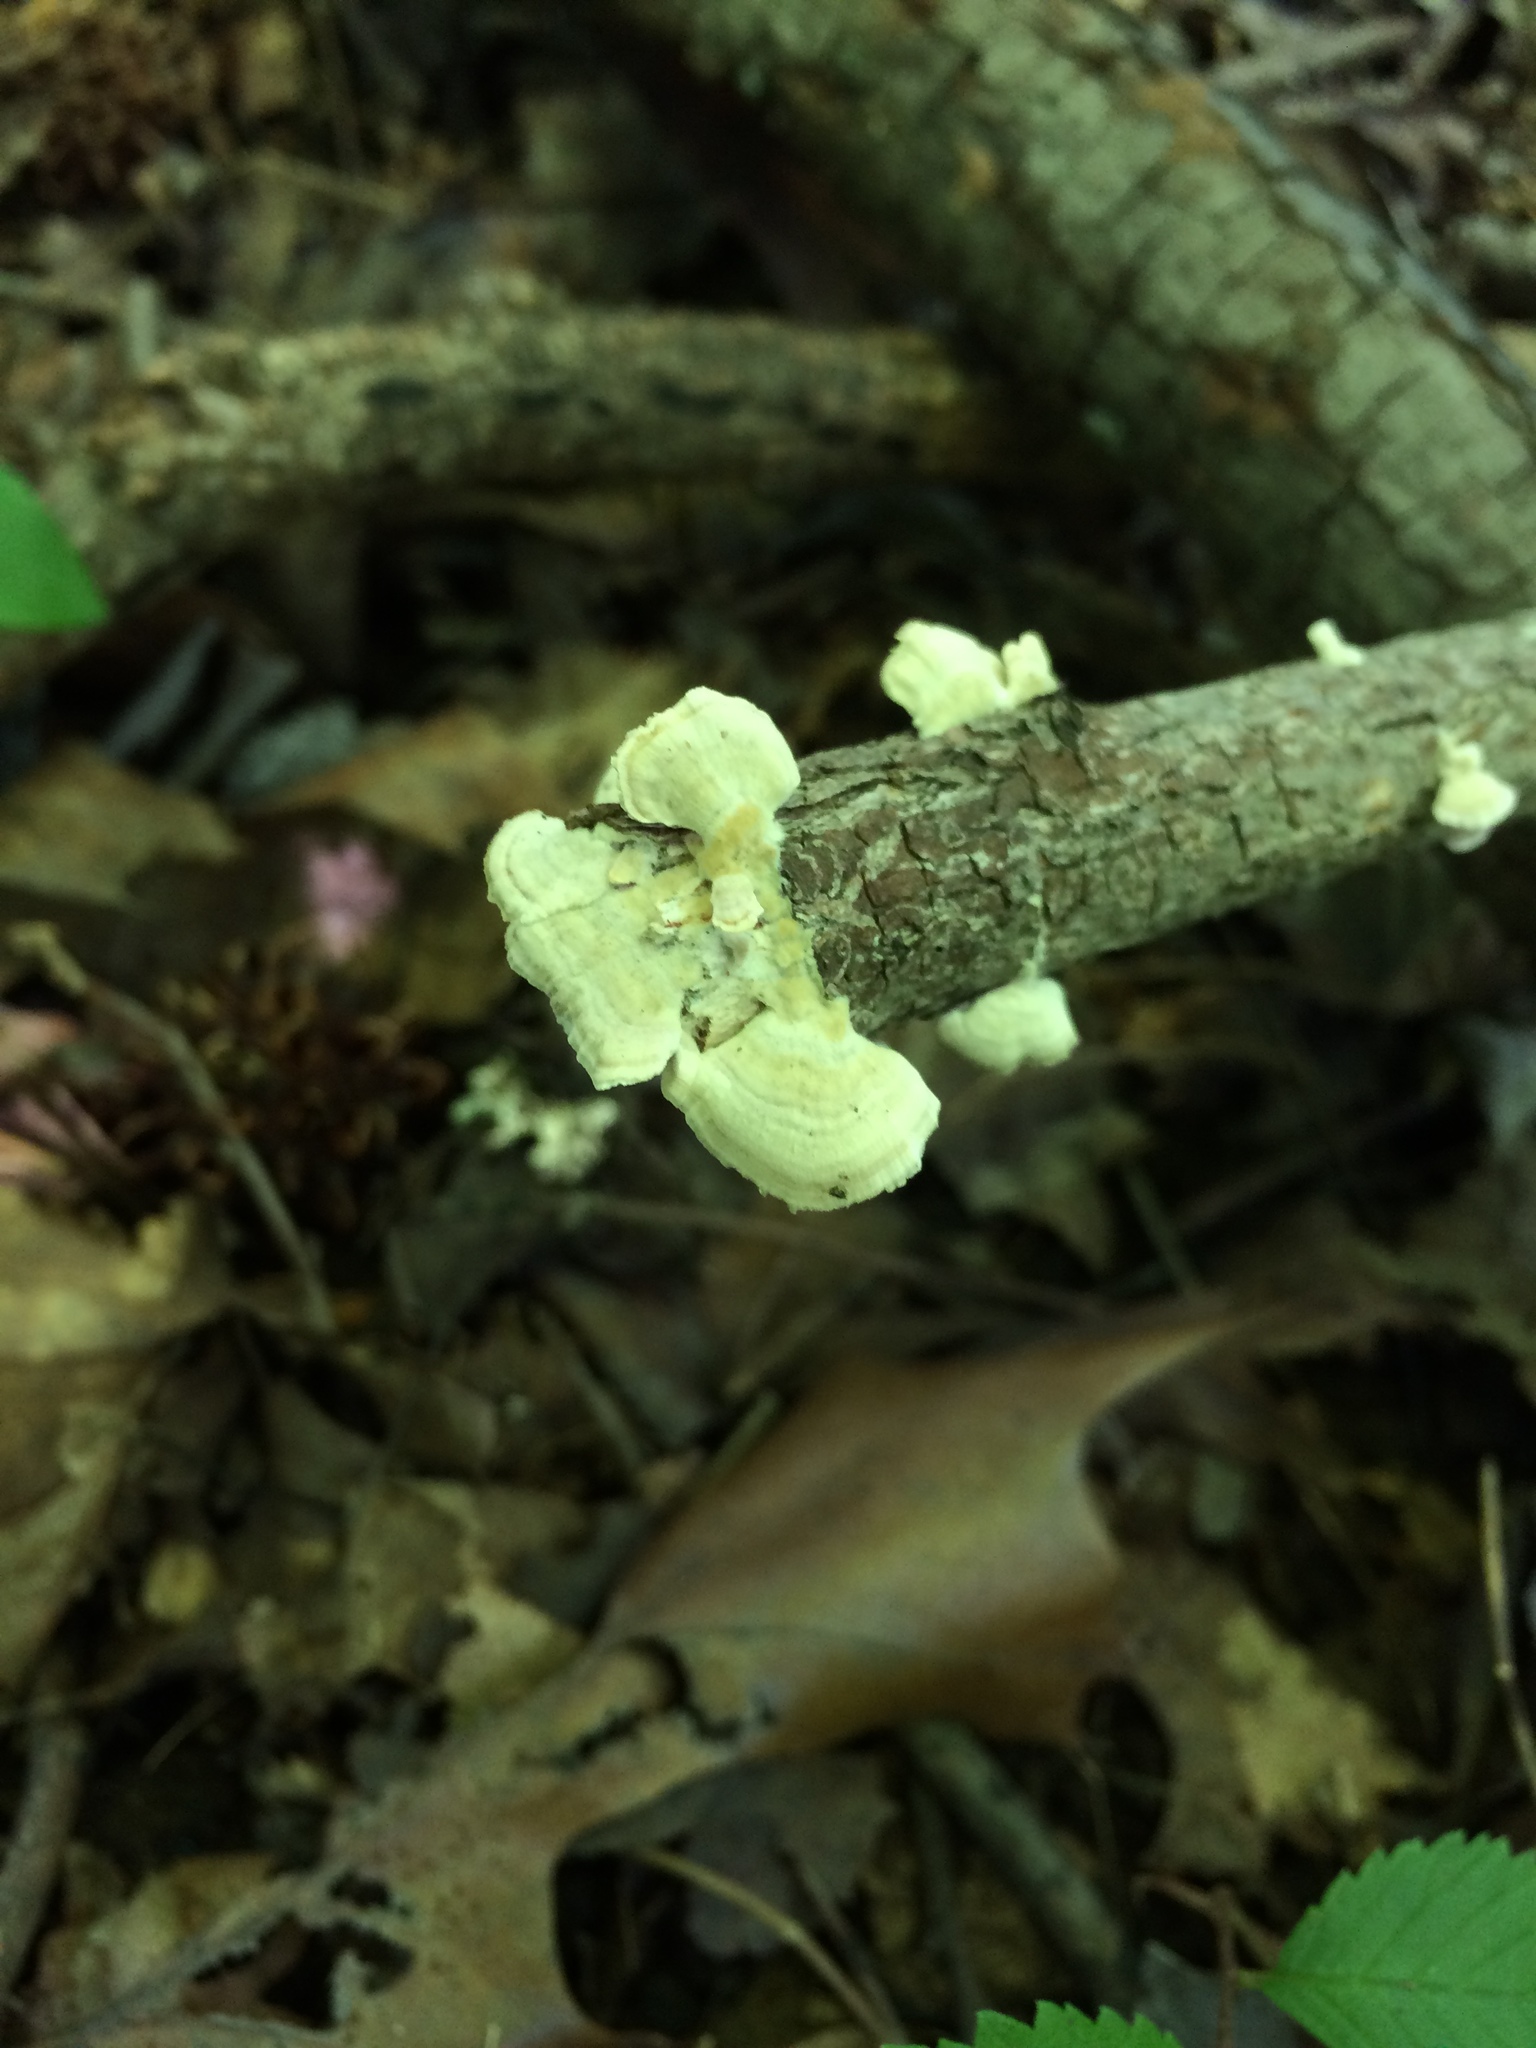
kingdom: Fungi
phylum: Basidiomycota
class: Agaricomycetes
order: Hymenochaetales
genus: Trichaptum
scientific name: Trichaptum biforme
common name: Violet-toothed polypore
